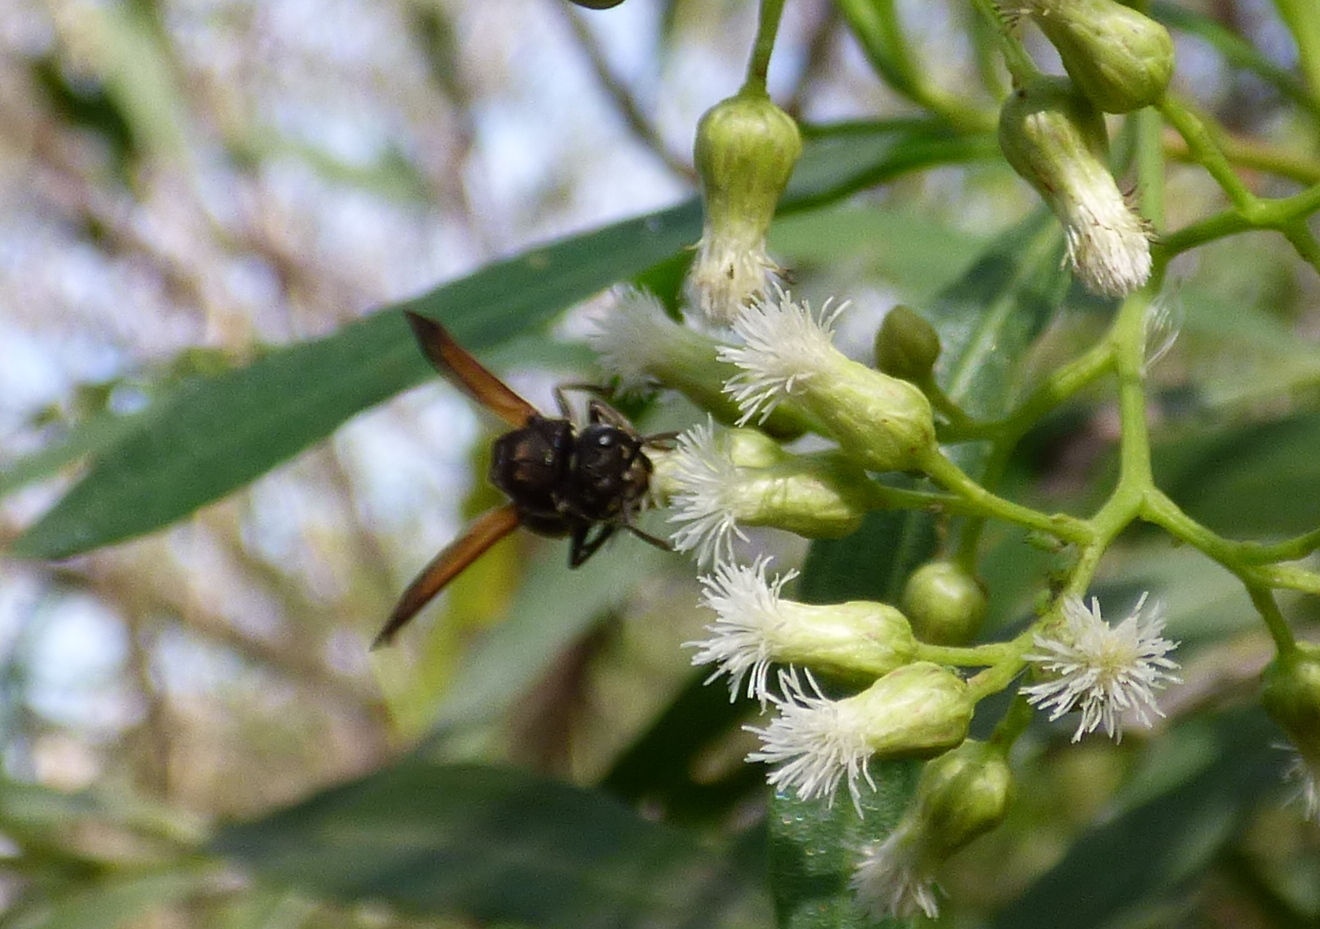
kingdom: Animalia
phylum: Arthropoda
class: Insecta
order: Hymenoptera
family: Vespidae
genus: Brachygastra
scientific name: Brachygastra lecheguana
